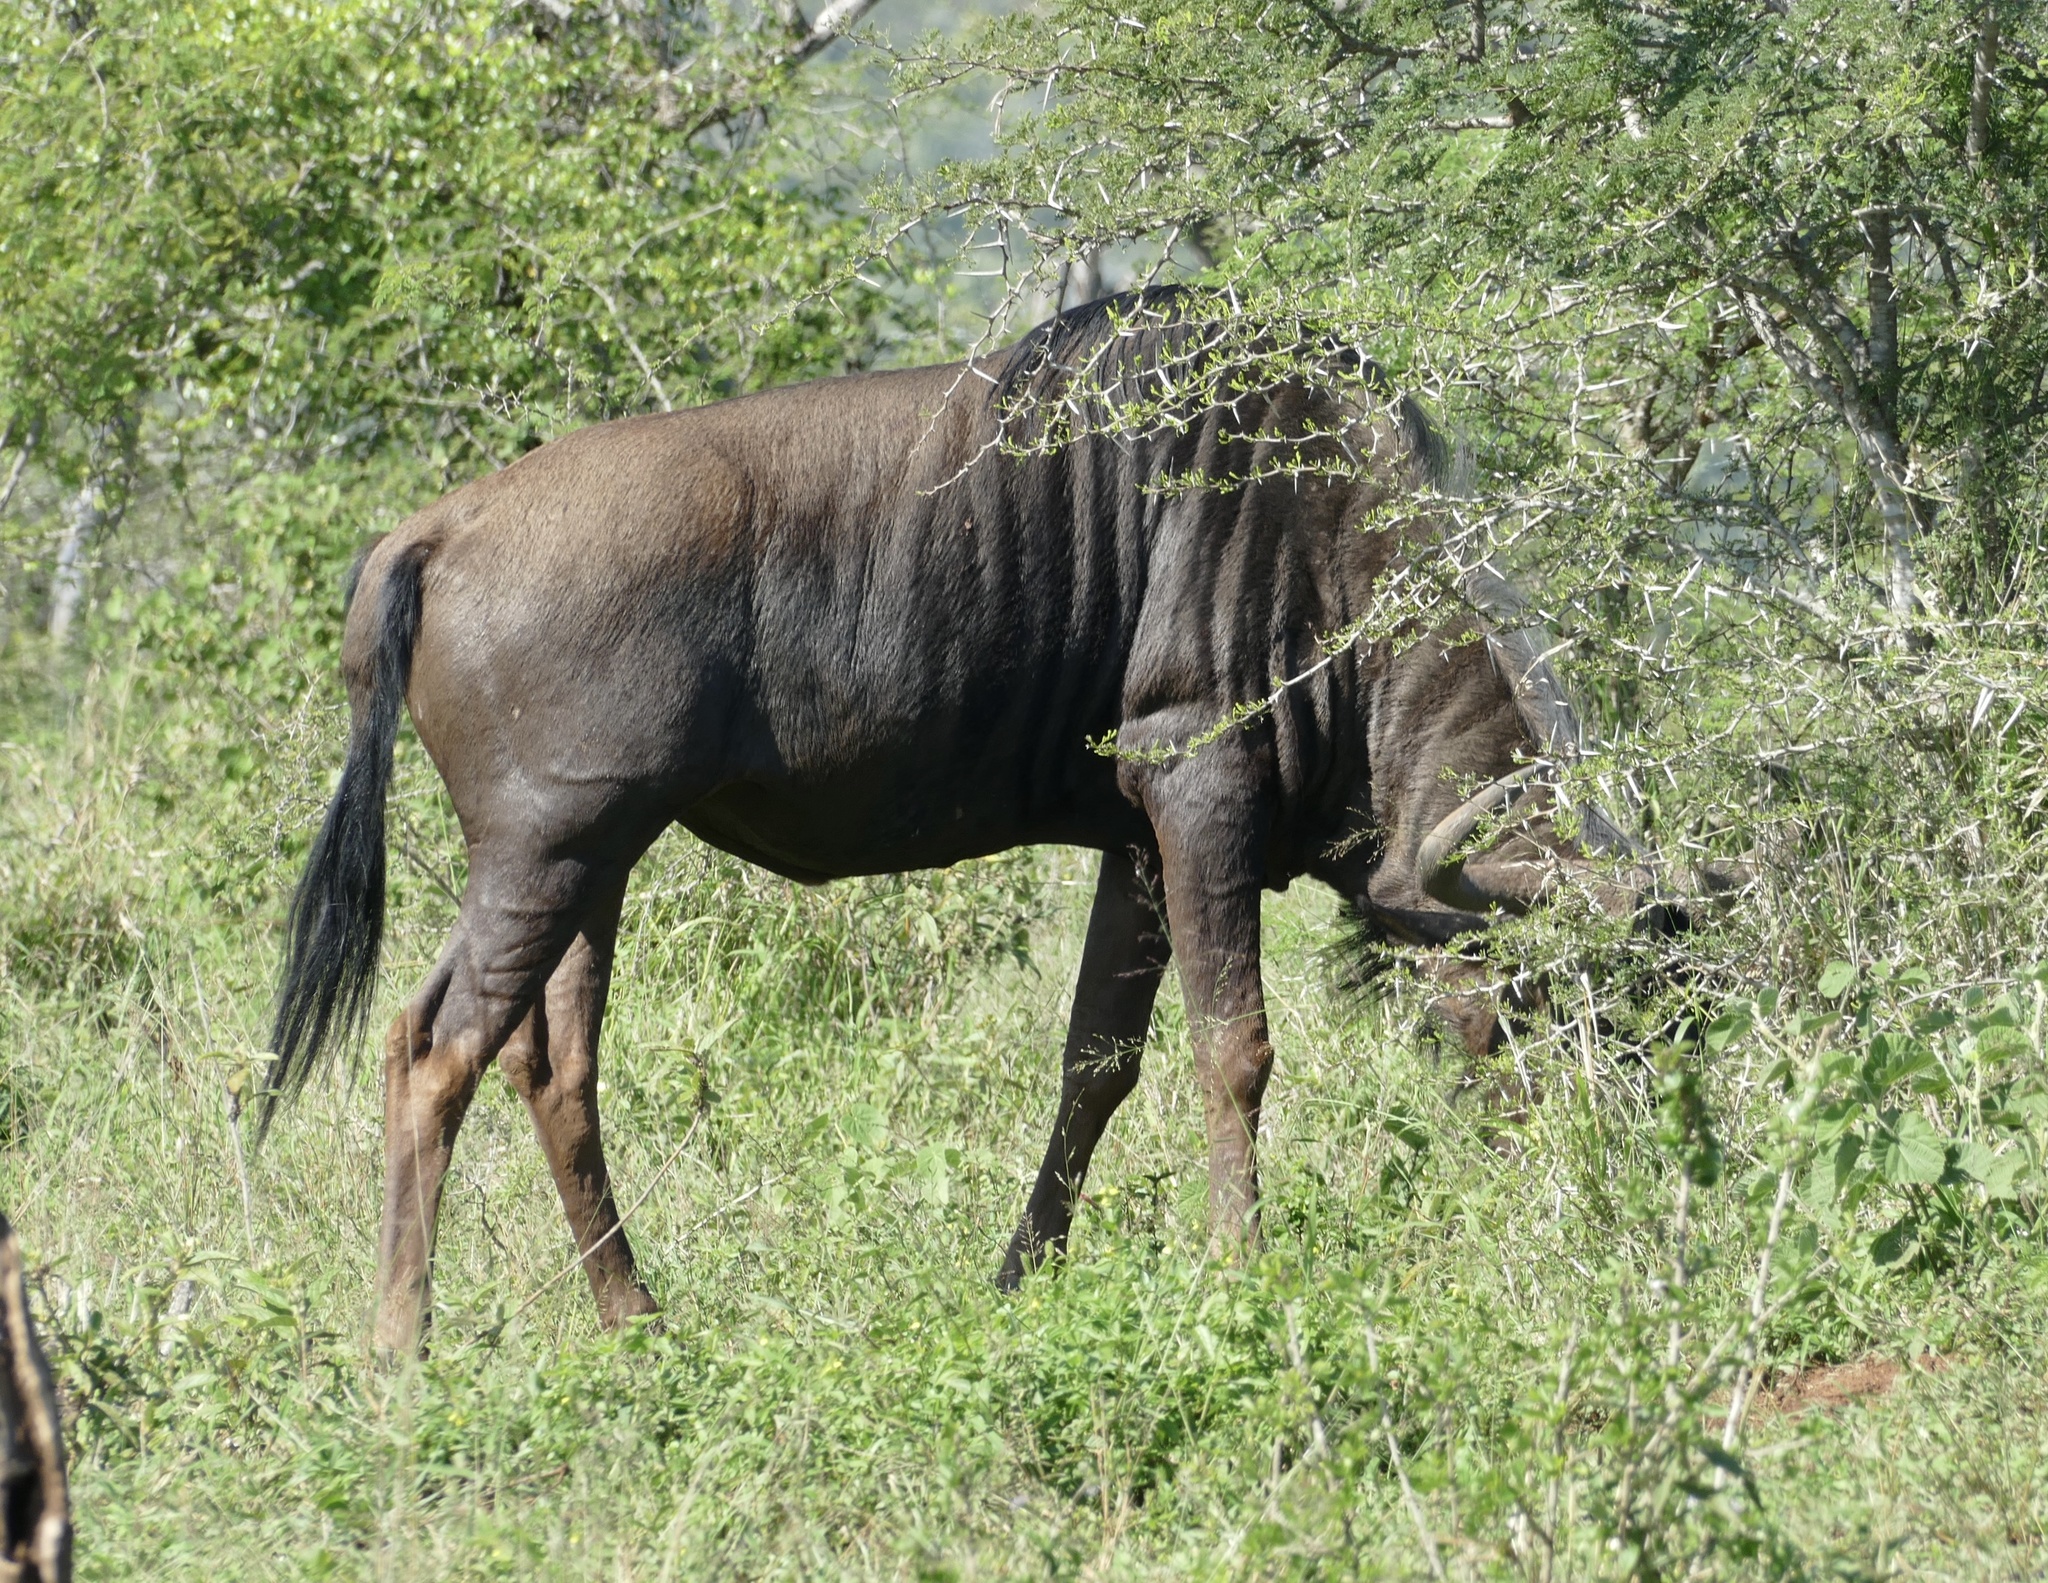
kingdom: Animalia
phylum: Chordata
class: Mammalia
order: Artiodactyla
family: Bovidae
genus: Connochaetes
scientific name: Connochaetes taurinus
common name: Blue wildebeest
